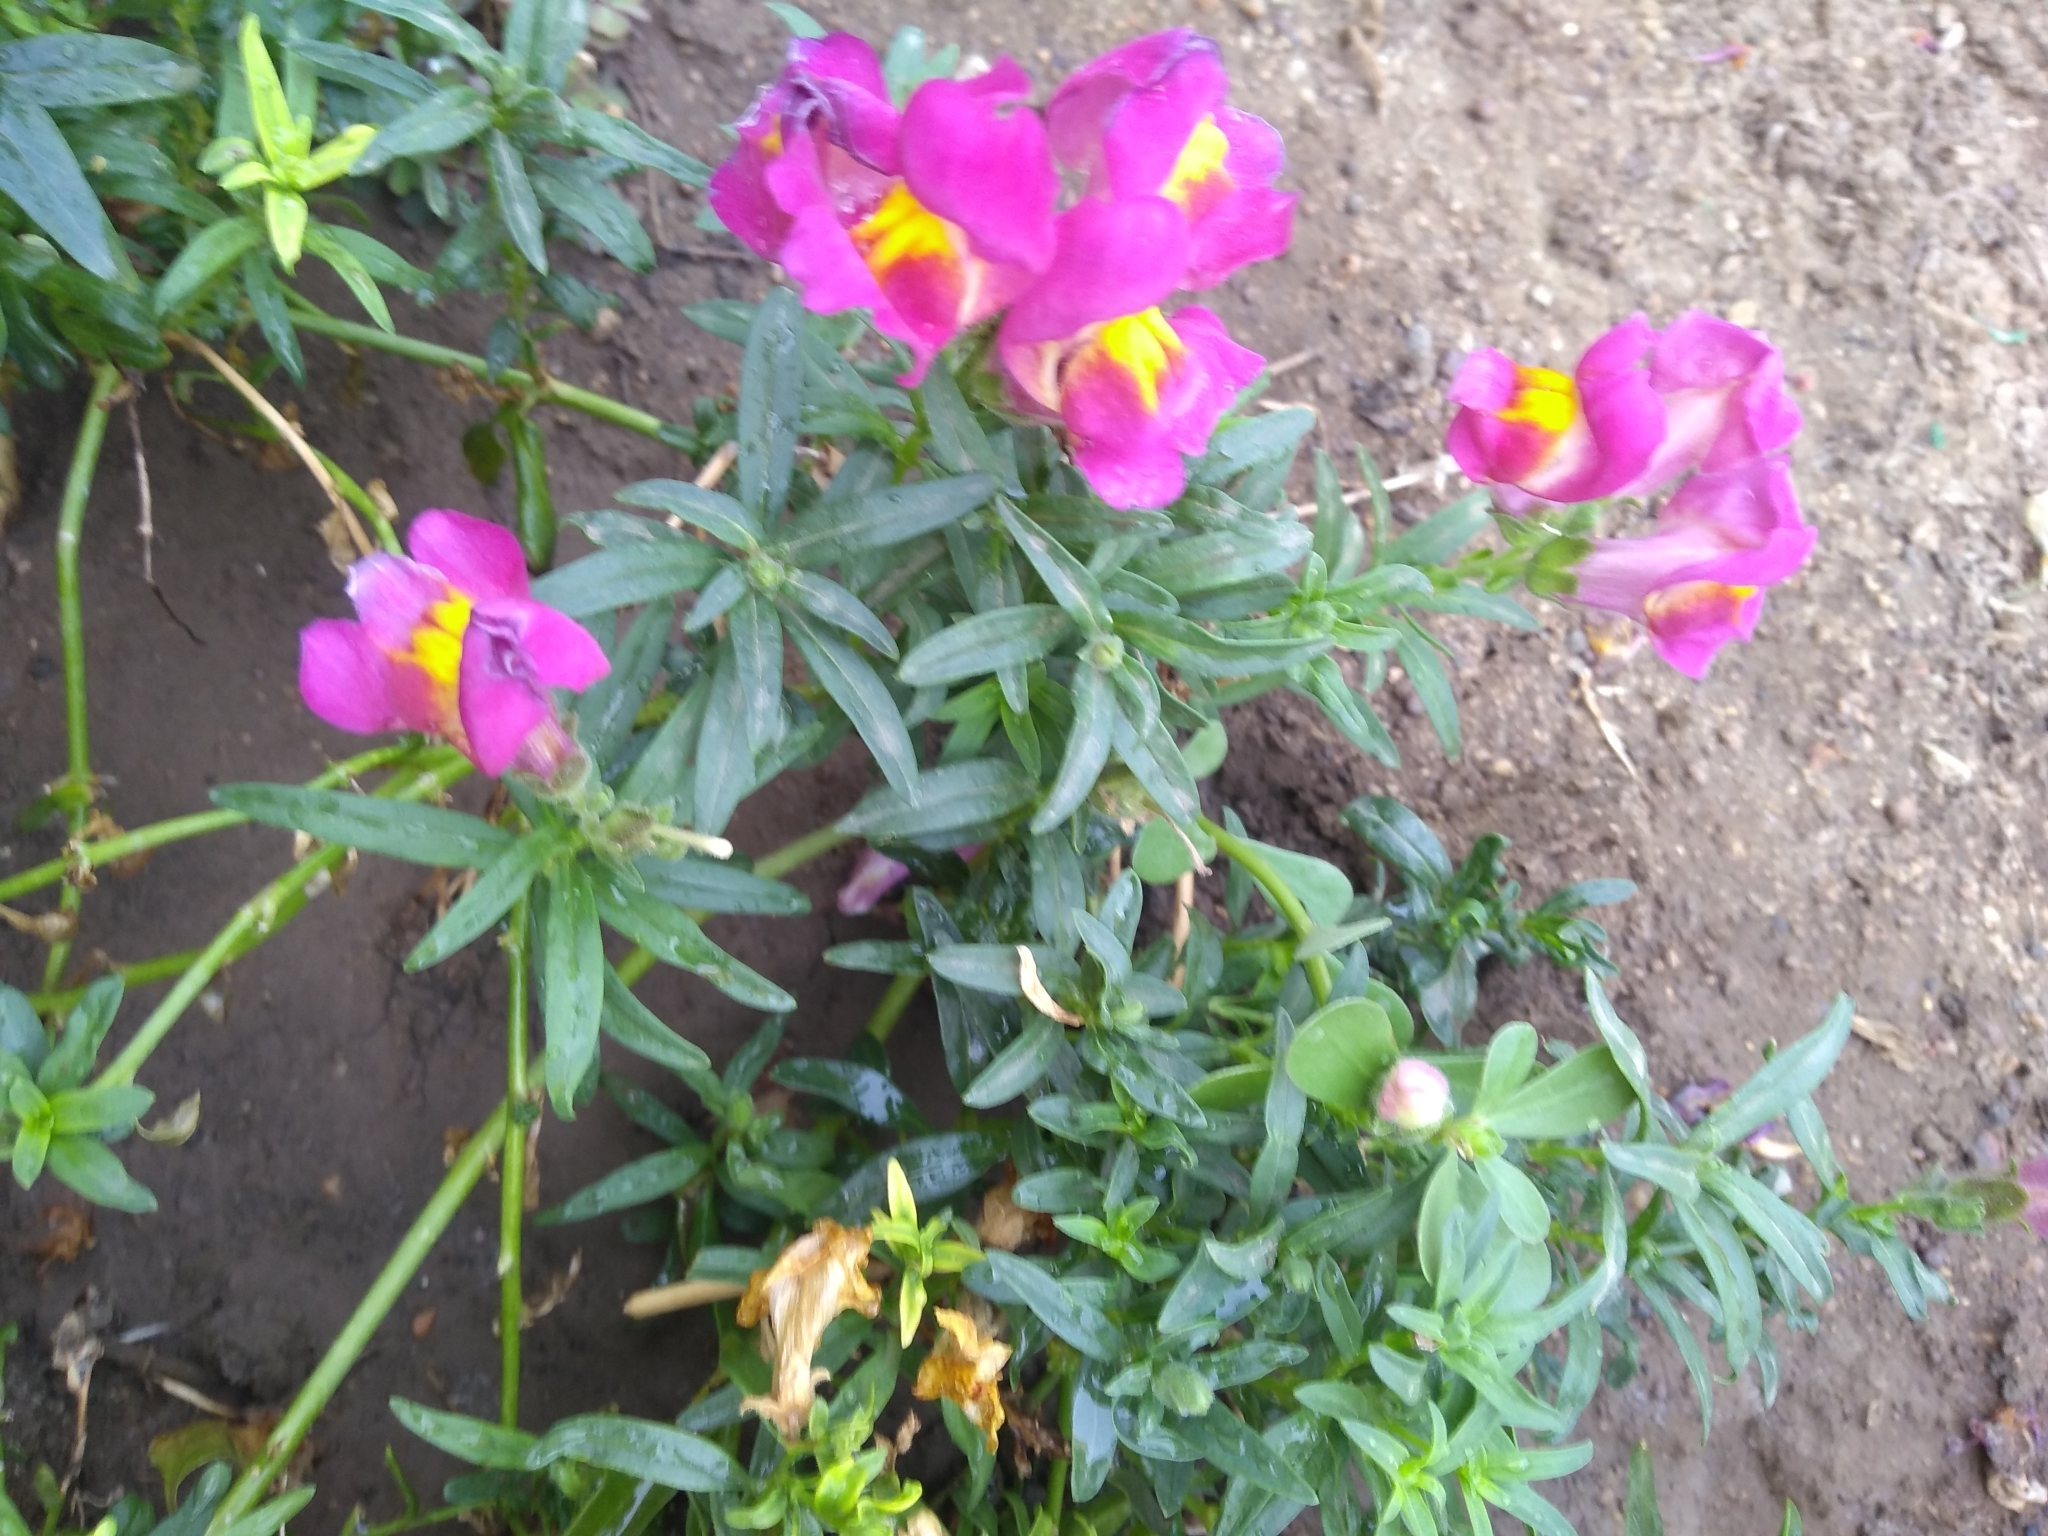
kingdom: Plantae
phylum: Tracheophyta
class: Magnoliopsida
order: Lamiales
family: Plantaginaceae
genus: Antirrhinum
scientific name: Antirrhinum majus
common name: Snapdragon
